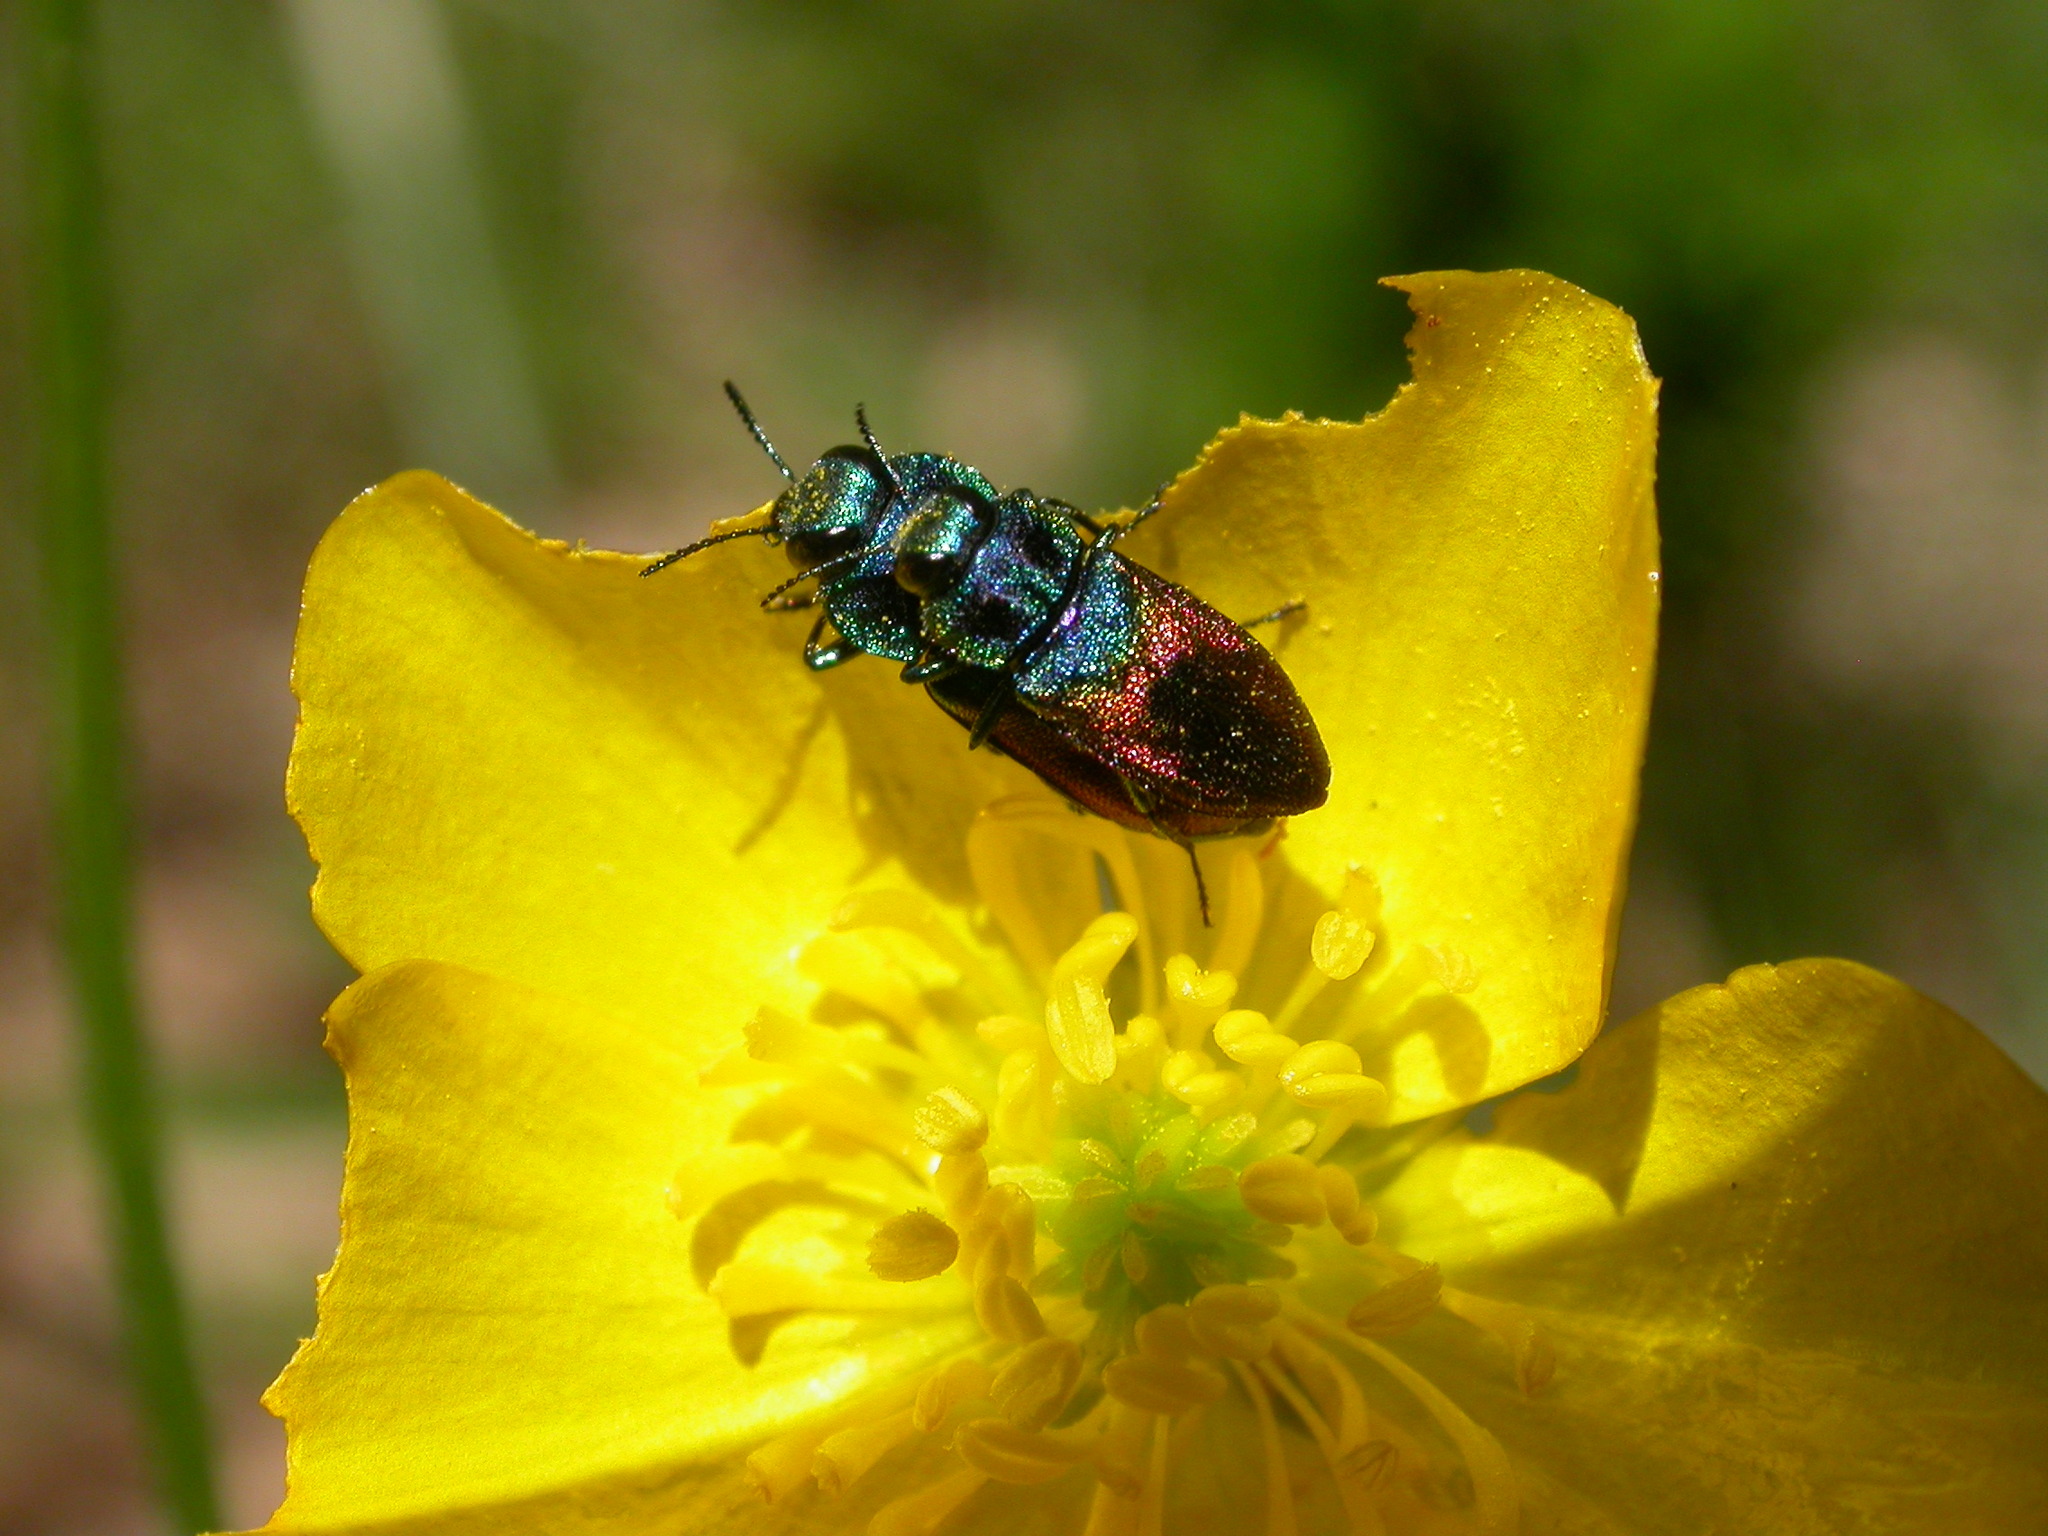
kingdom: Animalia
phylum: Arthropoda
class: Insecta
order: Coleoptera
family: Buprestidae
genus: Anthaxia
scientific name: Anthaxia salicis
